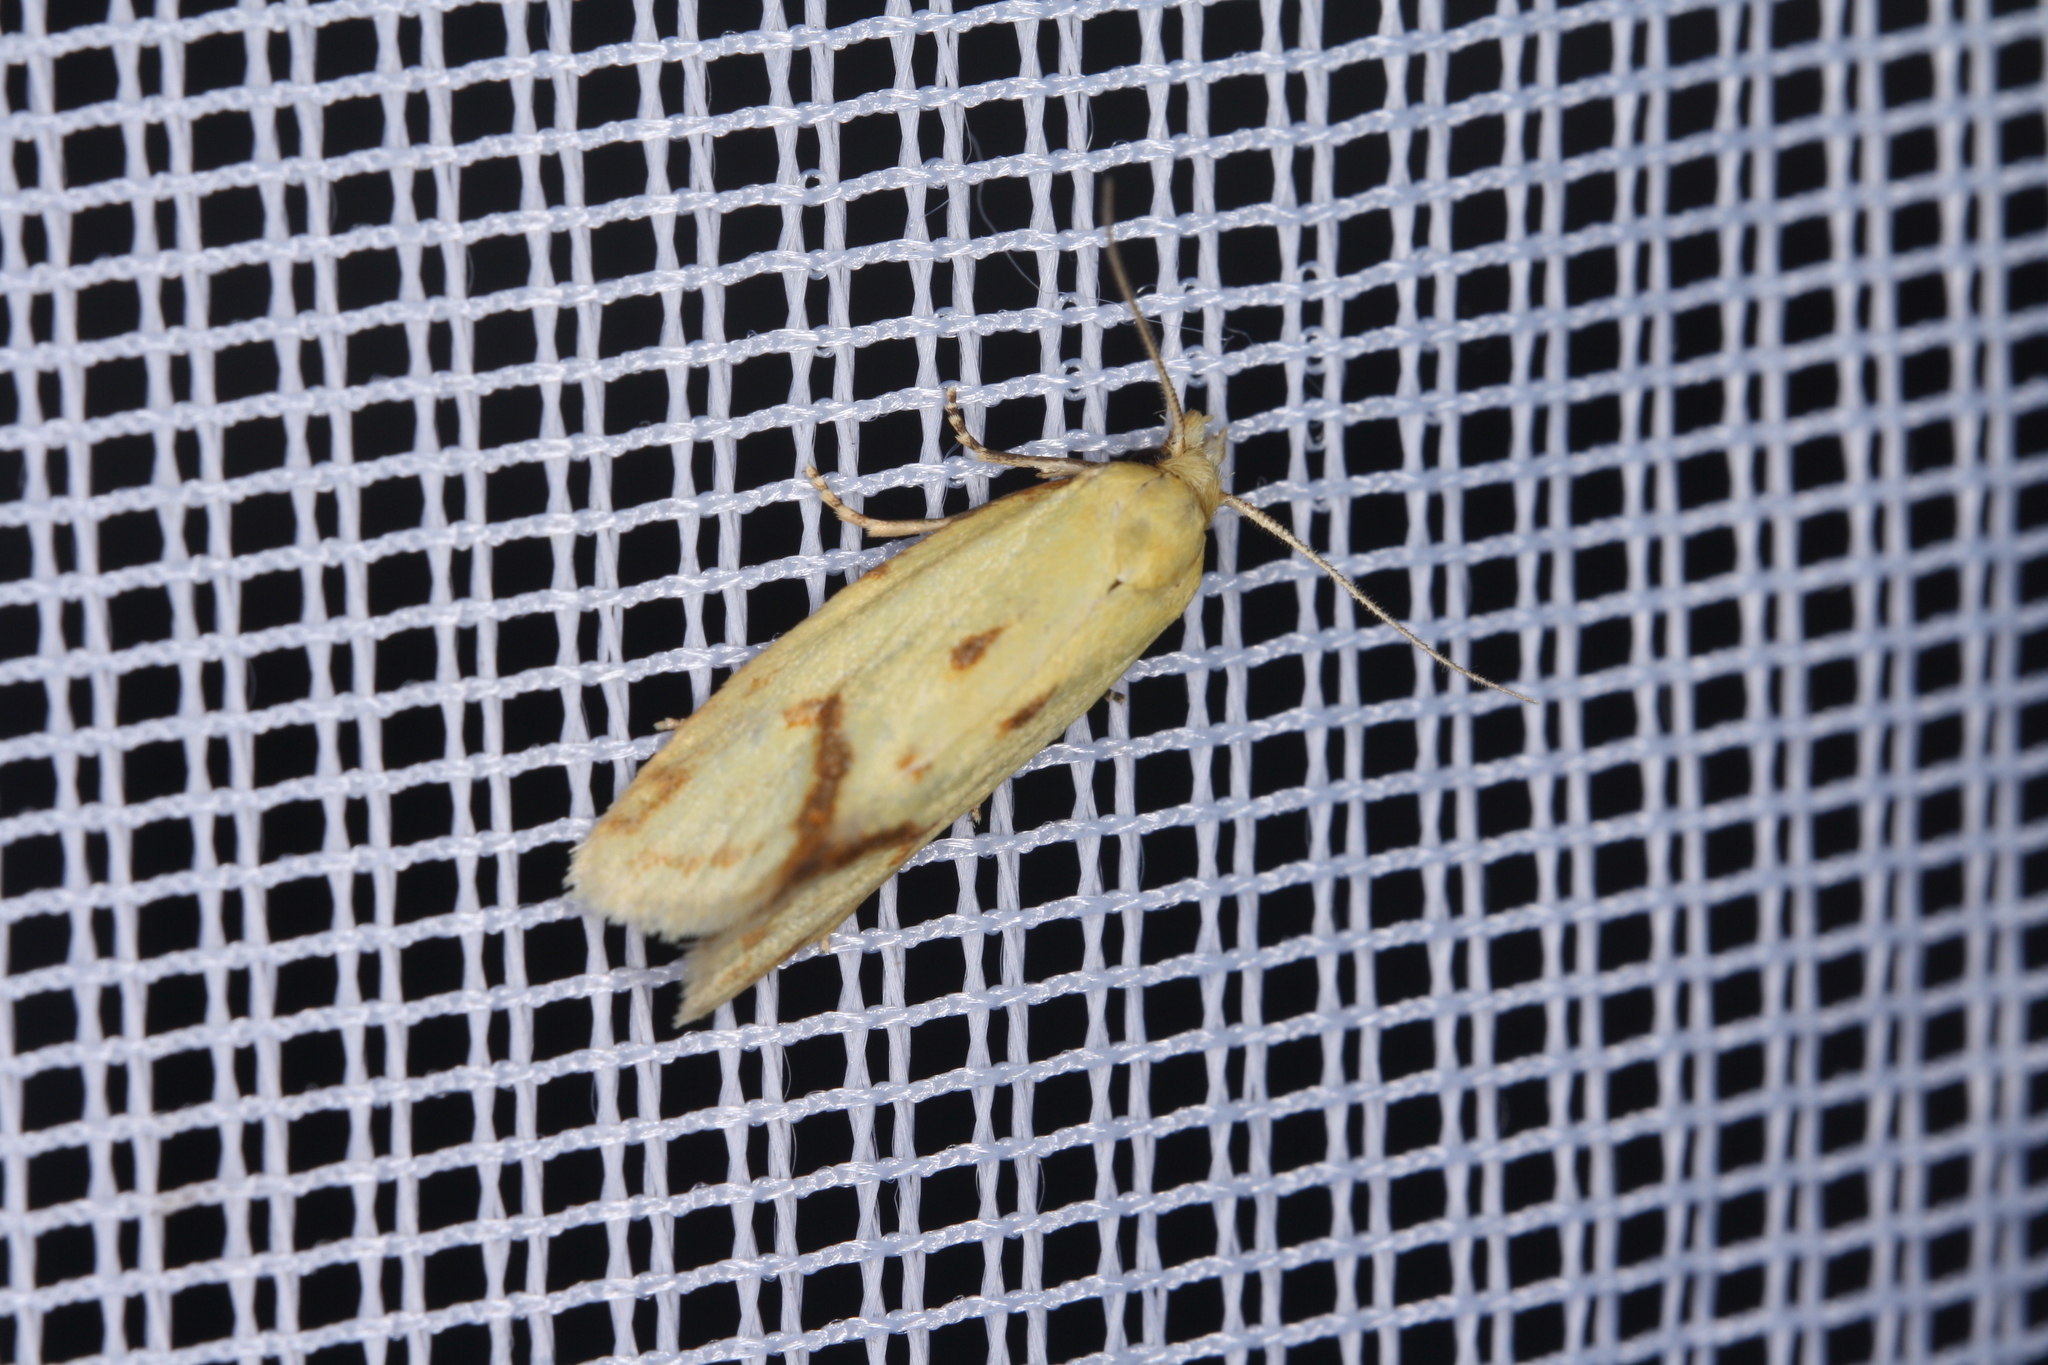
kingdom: Animalia
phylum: Arthropoda
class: Insecta
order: Lepidoptera
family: Tortricidae
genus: Agapeta
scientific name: Agapeta hamana
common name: Common yellow conch
